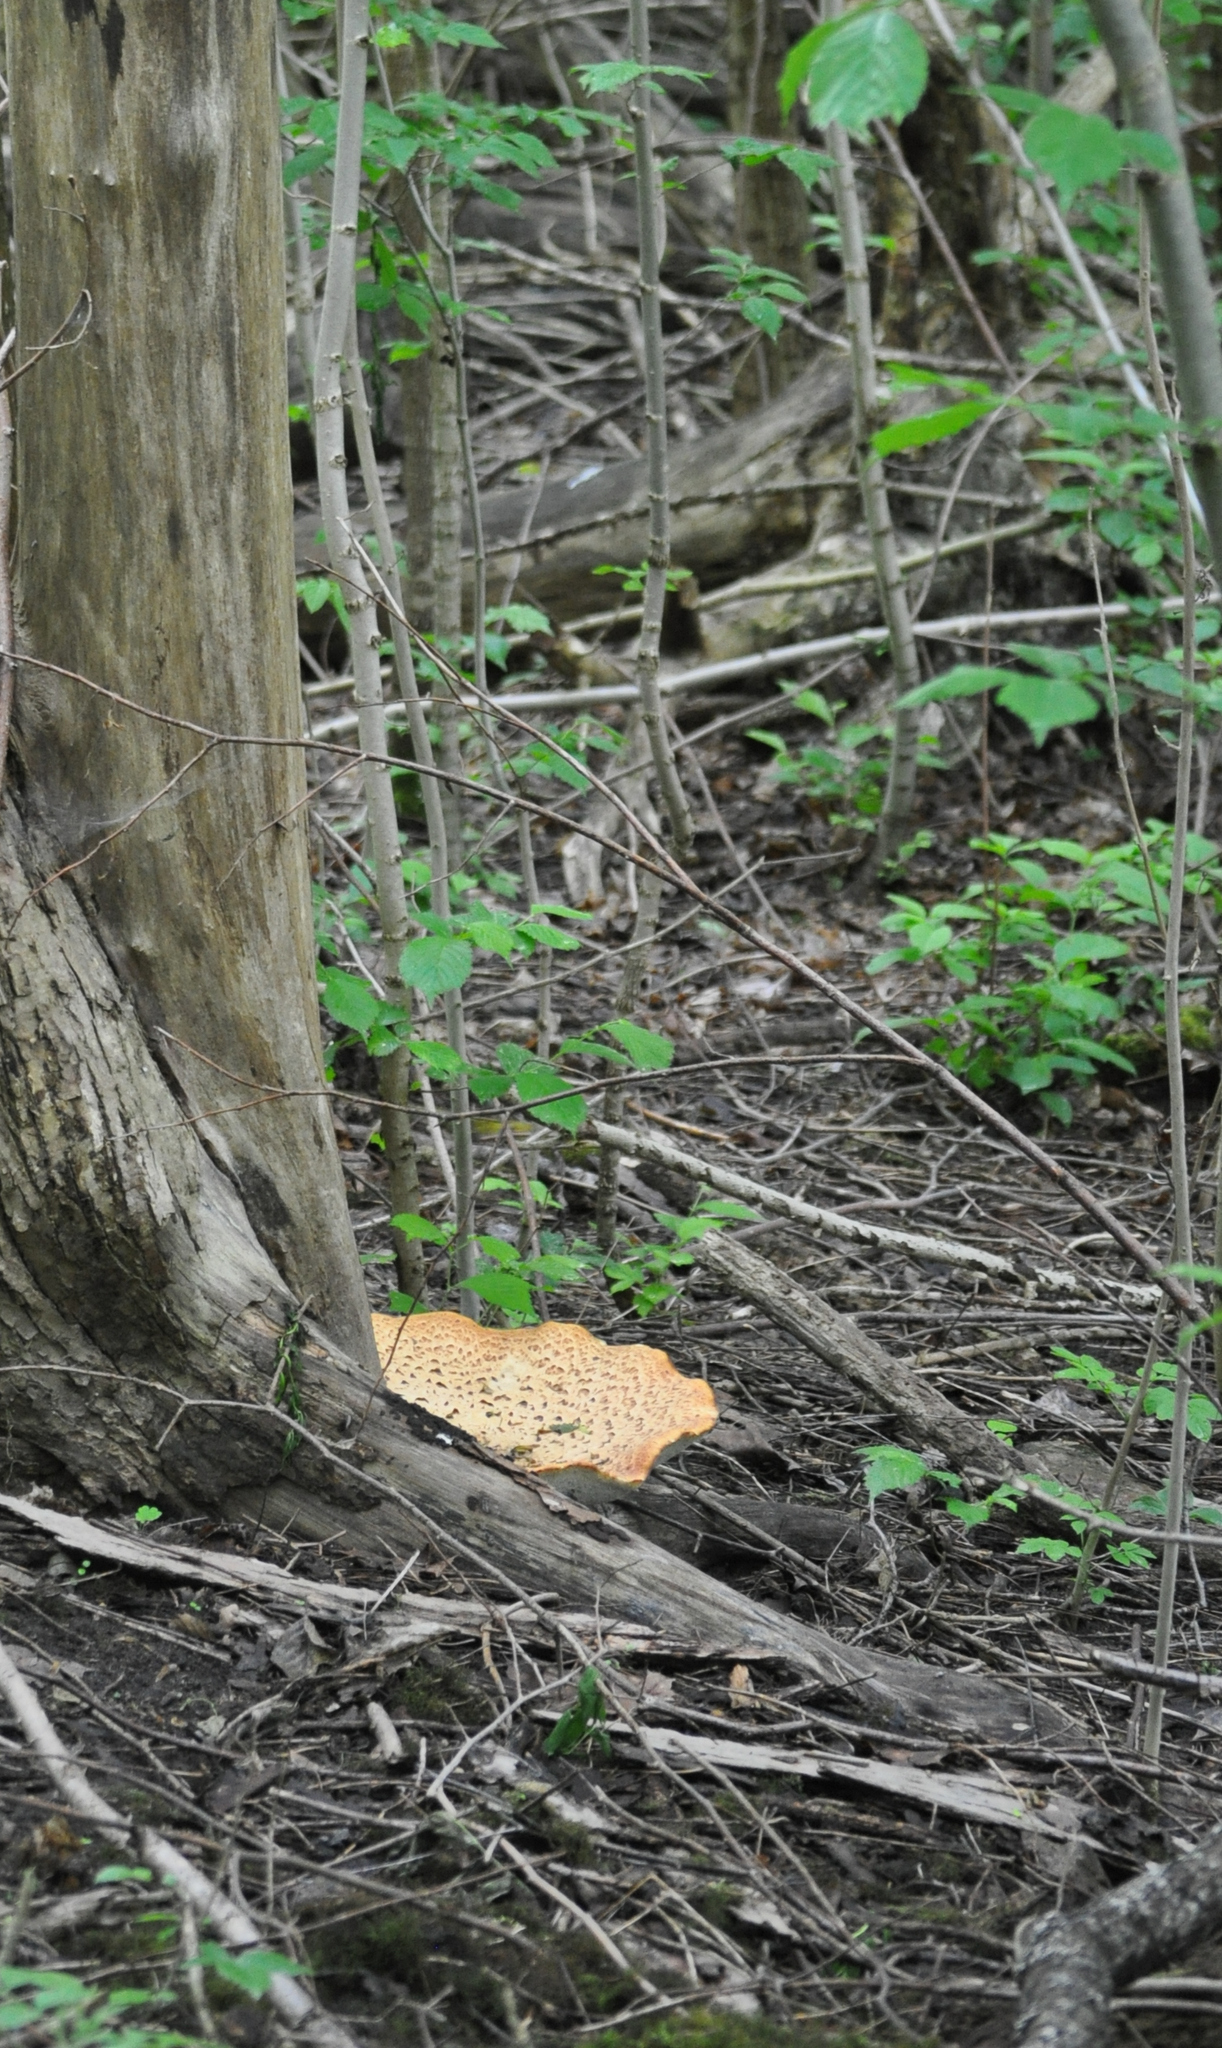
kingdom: Fungi
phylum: Basidiomycota
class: Agaricomycetes
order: Polyporales
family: Polyporaceae
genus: Cerioporus
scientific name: Cerioporus squamosus
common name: Dryad's saddle
